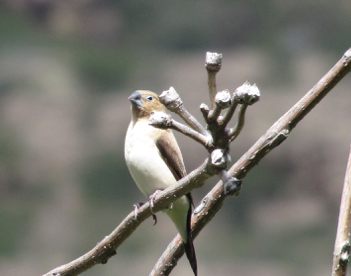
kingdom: Animalia
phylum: Chordata
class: Aves
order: Passeriformes
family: Estrildidae
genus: Euodice
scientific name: Euodice cantans
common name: African silverbill
